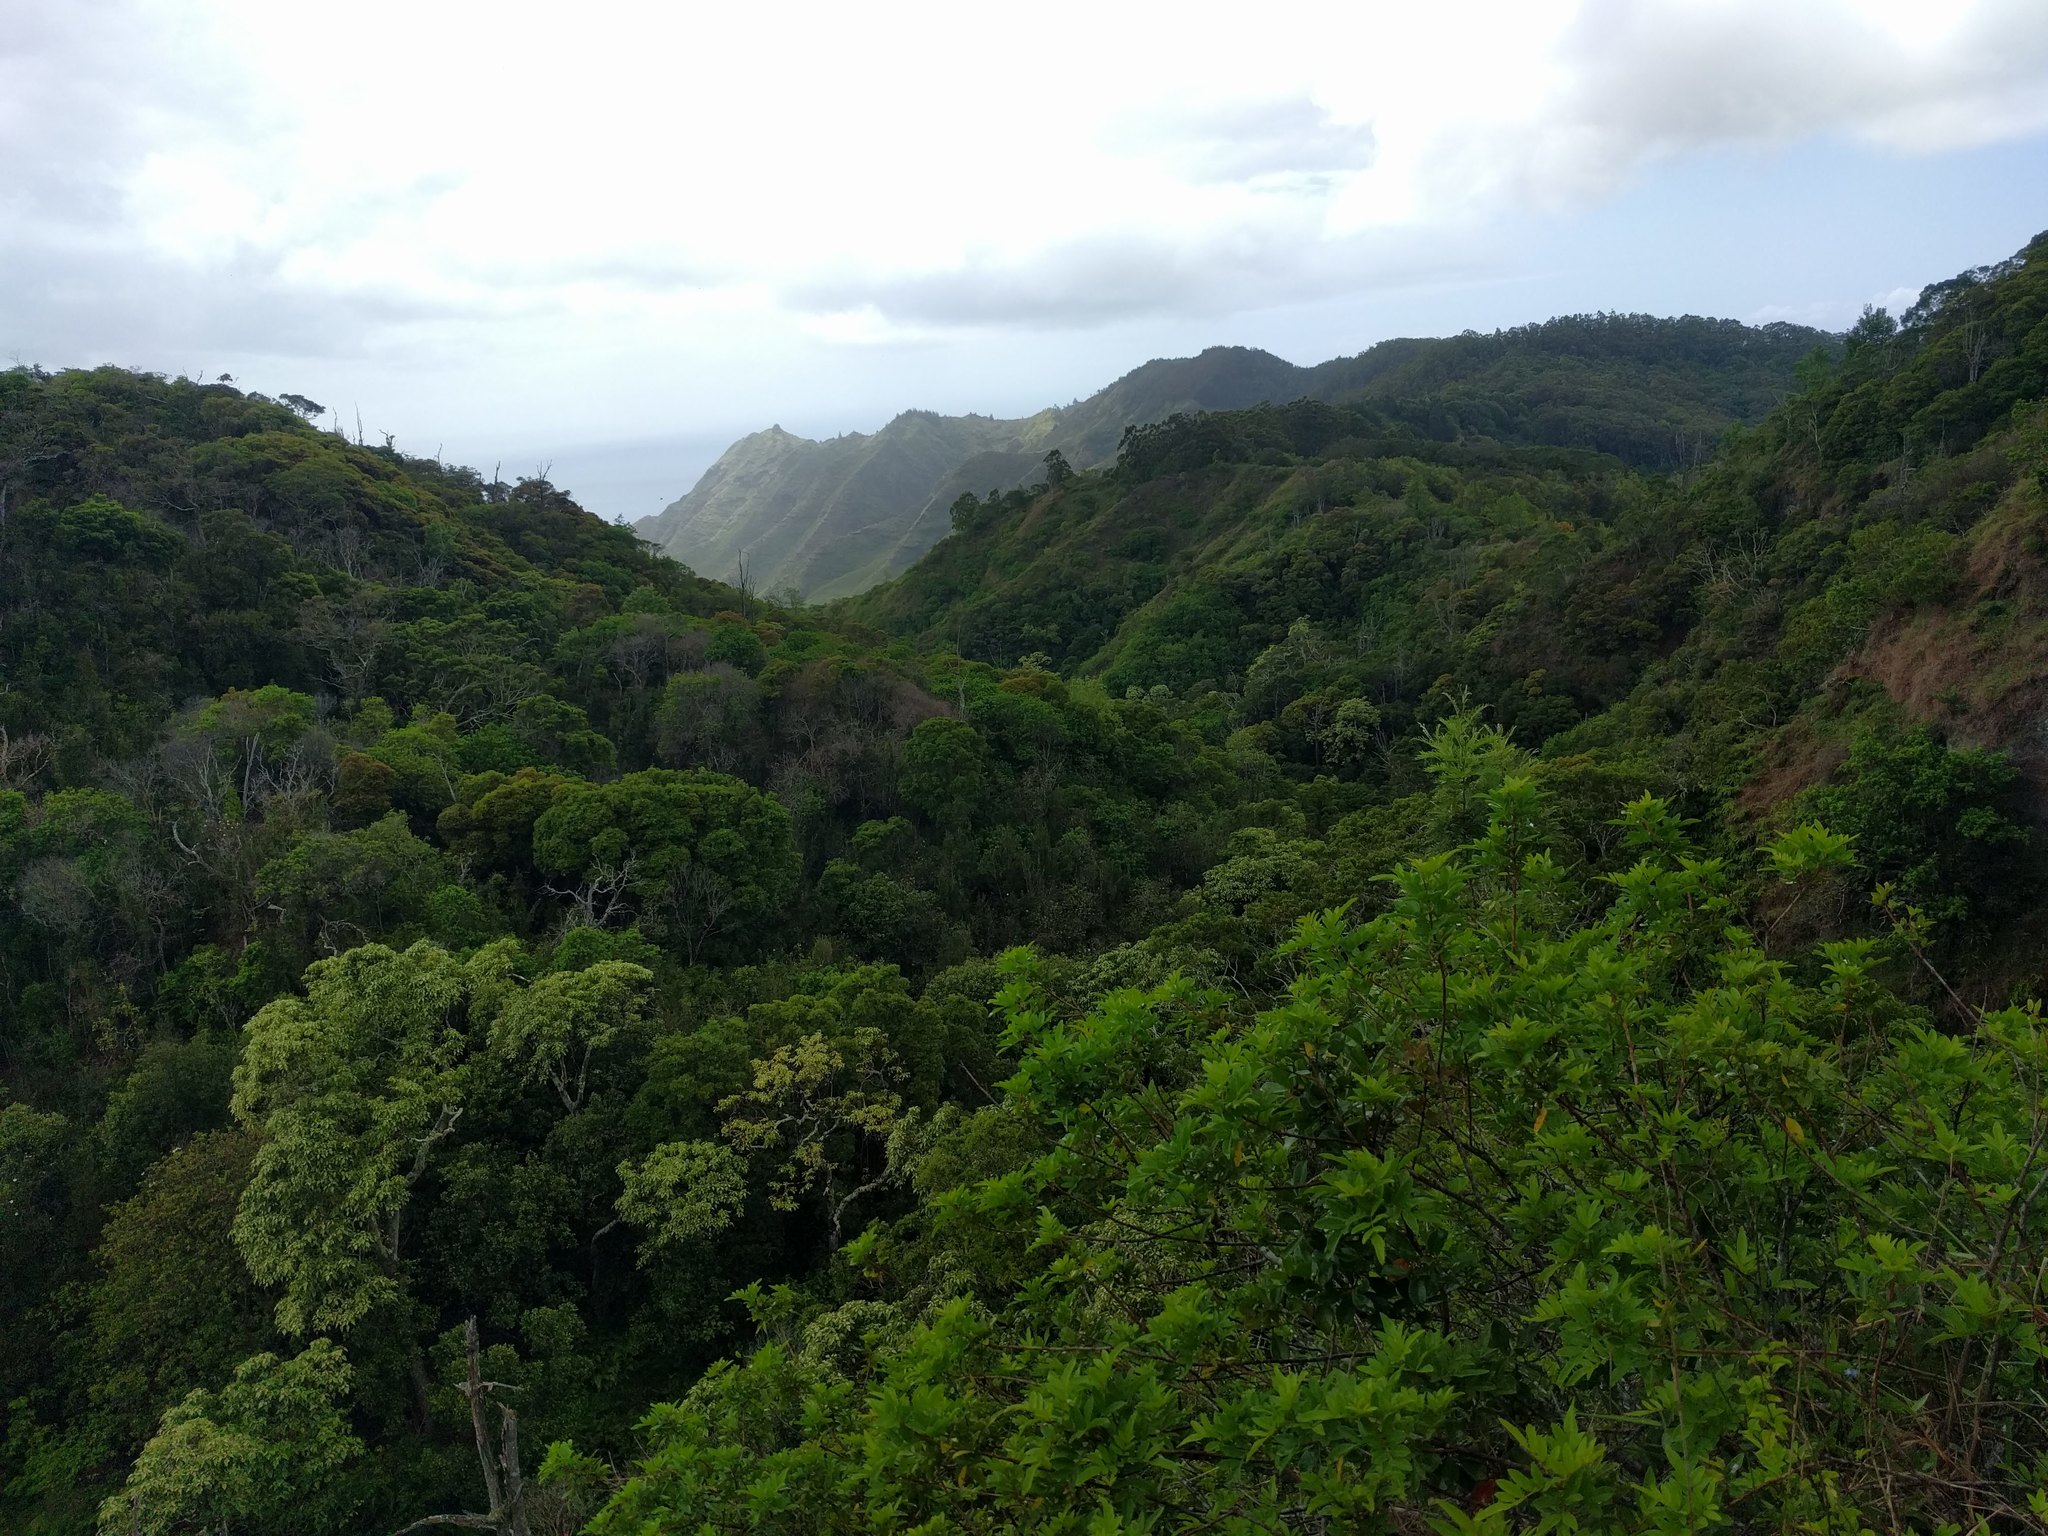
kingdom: Plantae
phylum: Tracheophyta
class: Magnoliopsida
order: Sapindales
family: Anacardiaceae
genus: Schinus
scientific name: Schinus terebinthifolia
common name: Brazilian peppertree
